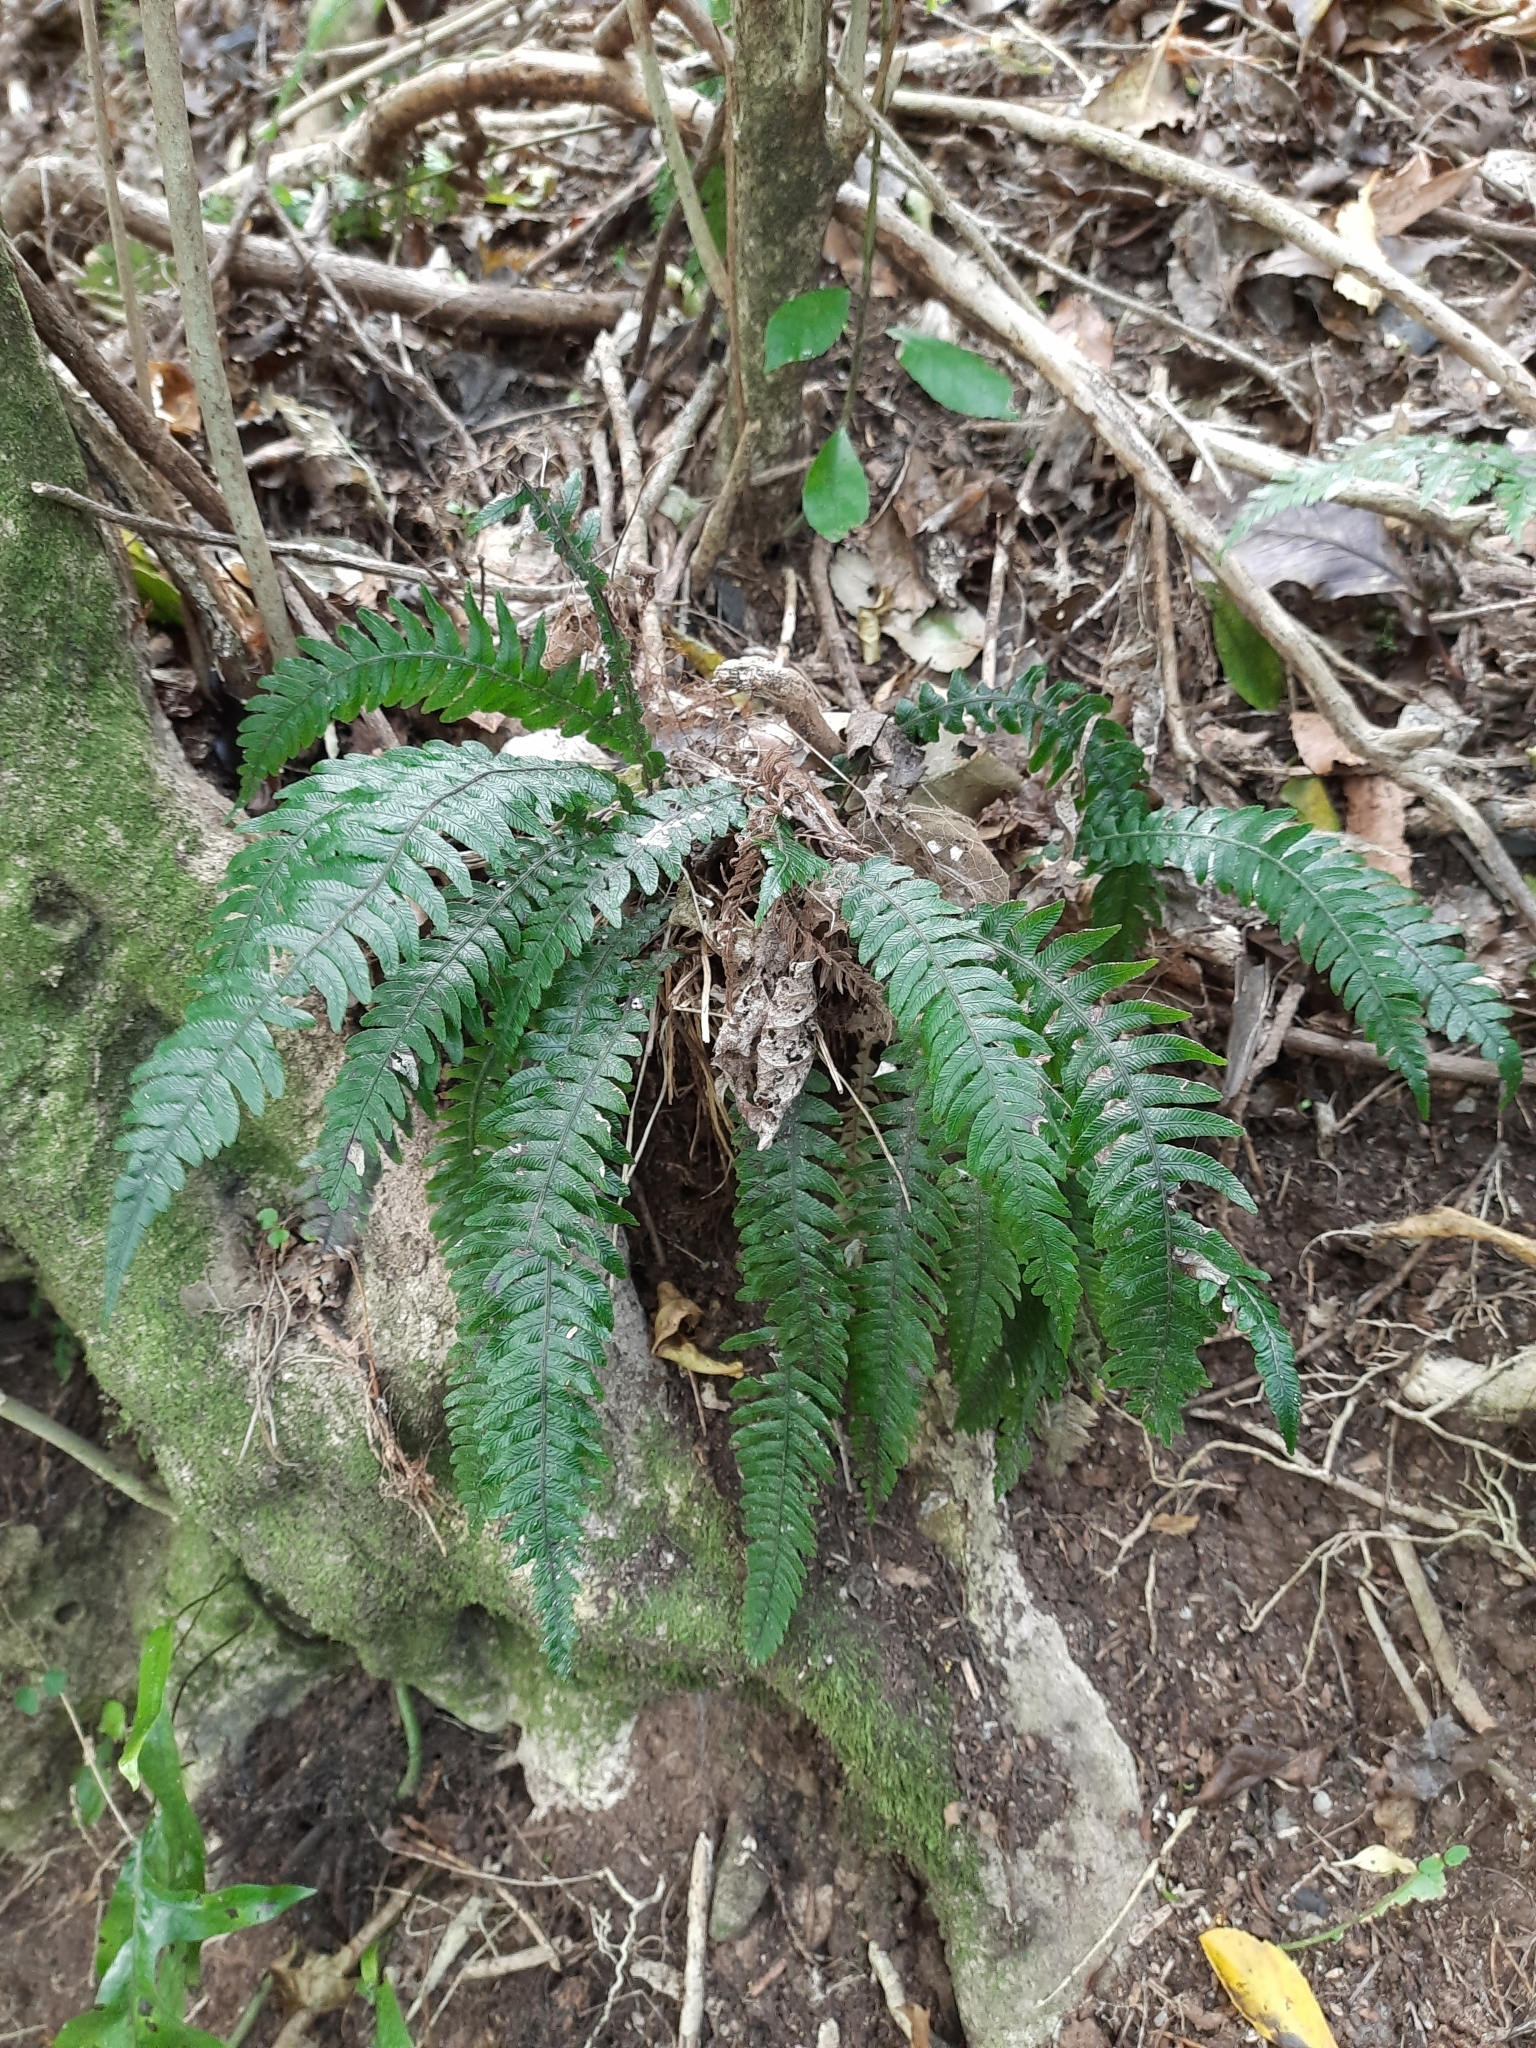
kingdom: Plantae
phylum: Tracheophyta
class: Polypodiopsida
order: Polypodiales
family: Blechnaceae
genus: Austroblechnum
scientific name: Austroblechnum lanceolatum
